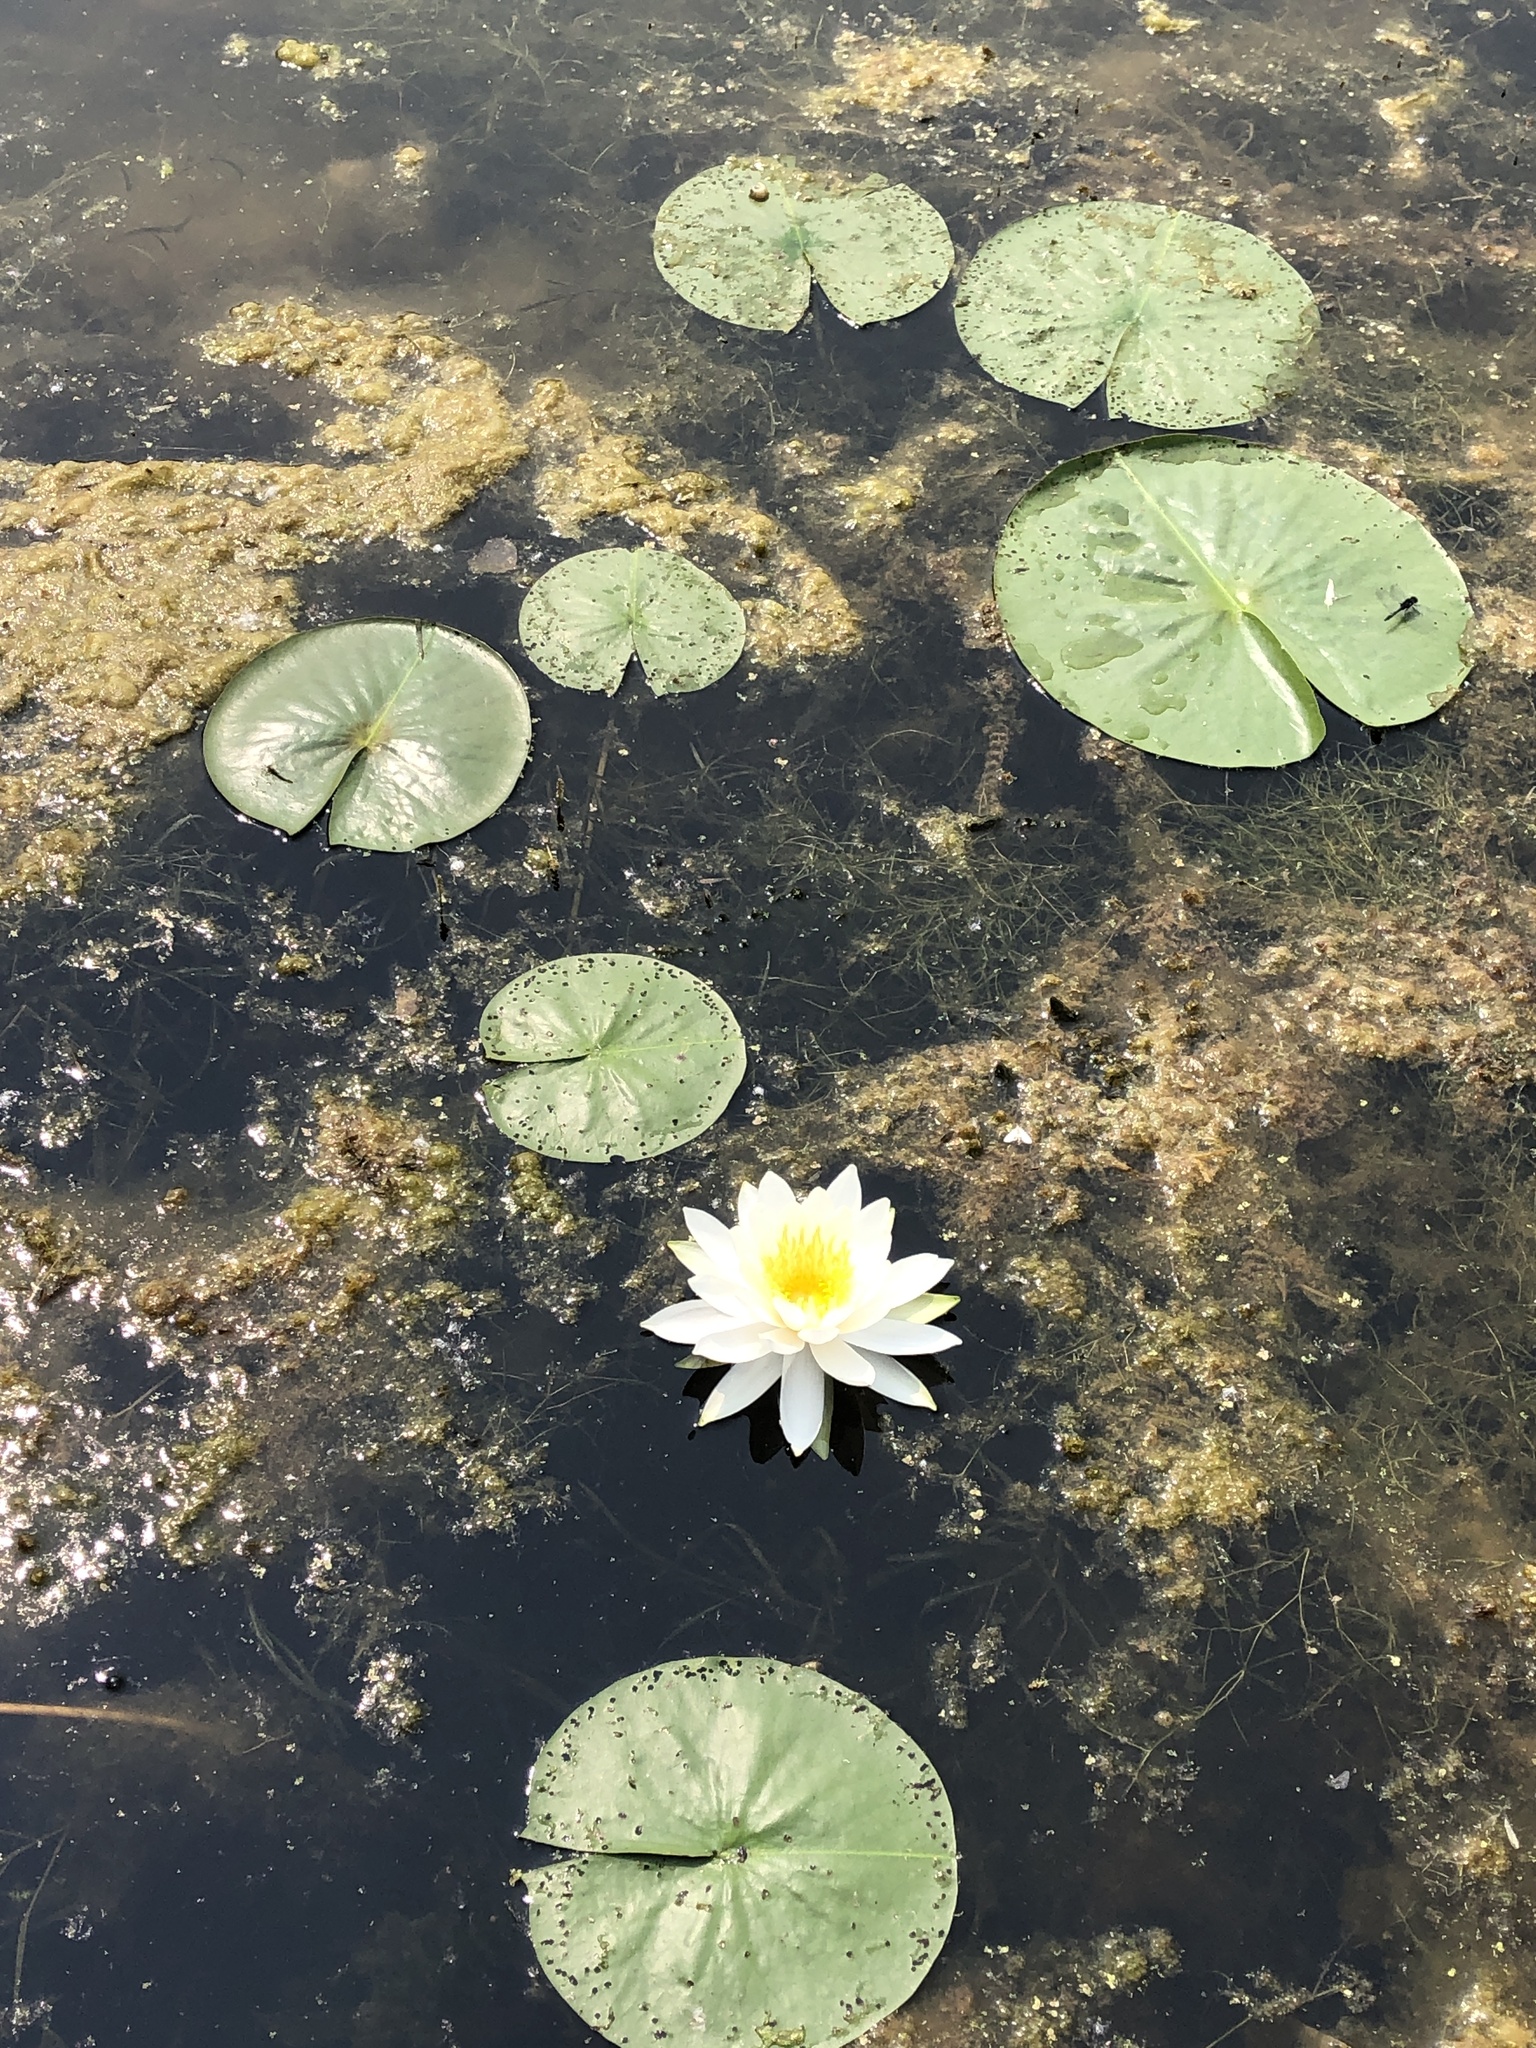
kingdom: Plantae
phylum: Tracheophyta
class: Magnoliopsida
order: Nymphaeales
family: Nymphaeaceae
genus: Nymphaea
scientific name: Nymphaea odorata
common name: Fragrant water-lily
